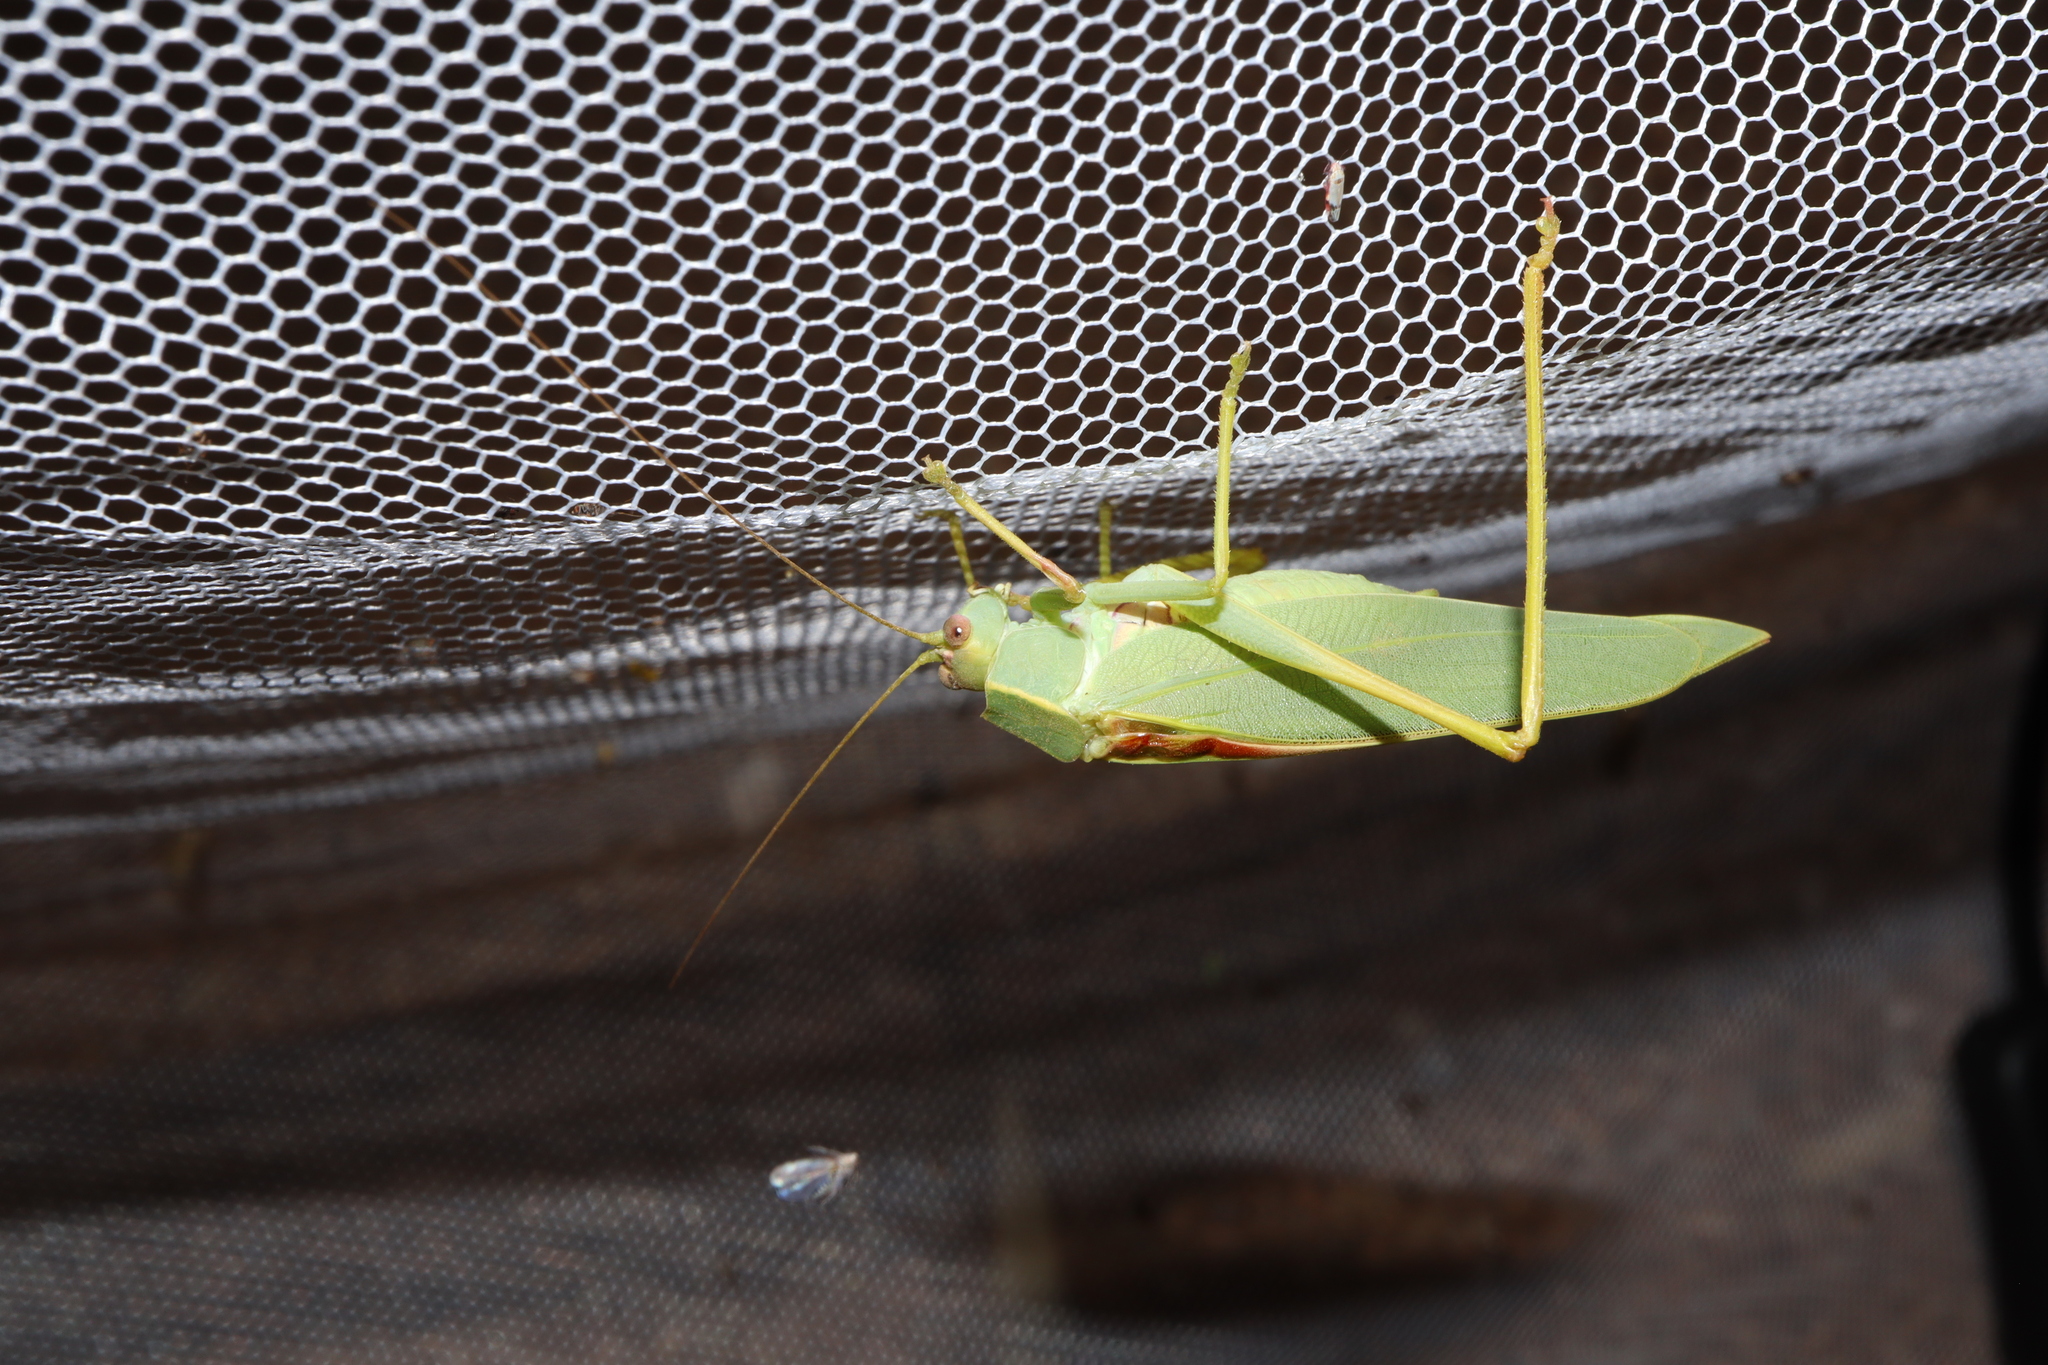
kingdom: Animalia
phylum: Arthropoda
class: Insecta
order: Orthoptera
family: Tettigoniidae
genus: Torbia
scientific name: Torbia viridissima
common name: Non-predaceous gum leaf katydid
